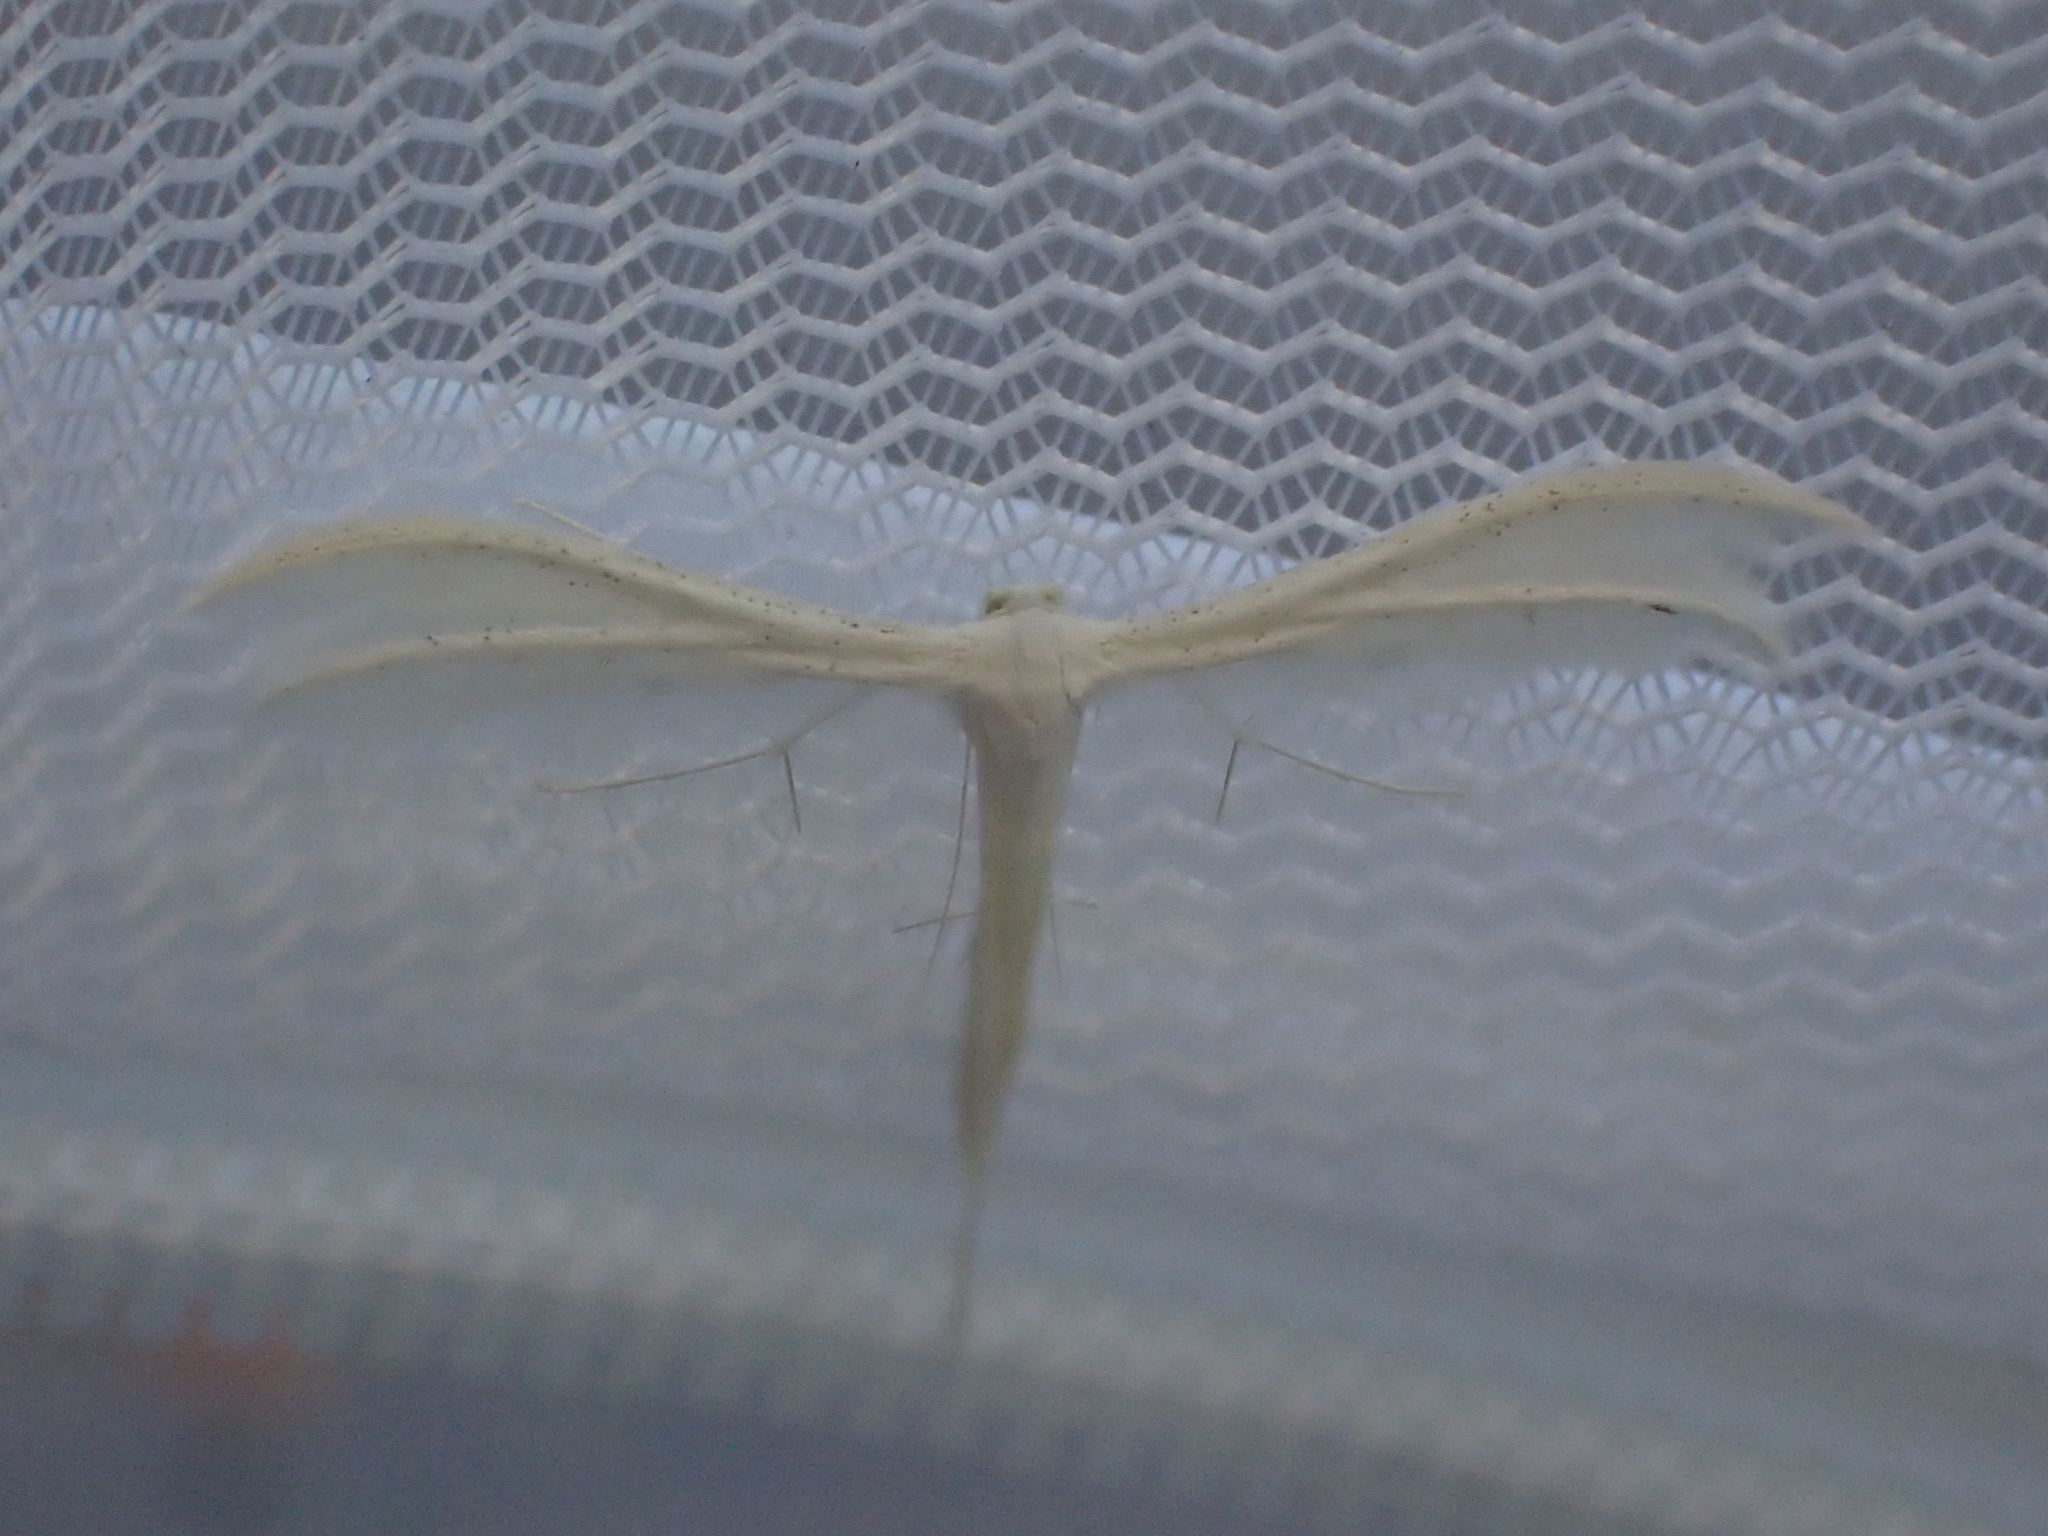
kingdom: Animalia
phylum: Arthropoda
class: Insecta
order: Lepidoptera
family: Pterophoridae
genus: Pterophorus
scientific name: Pterophorus pentadactyla
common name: White plume moth
